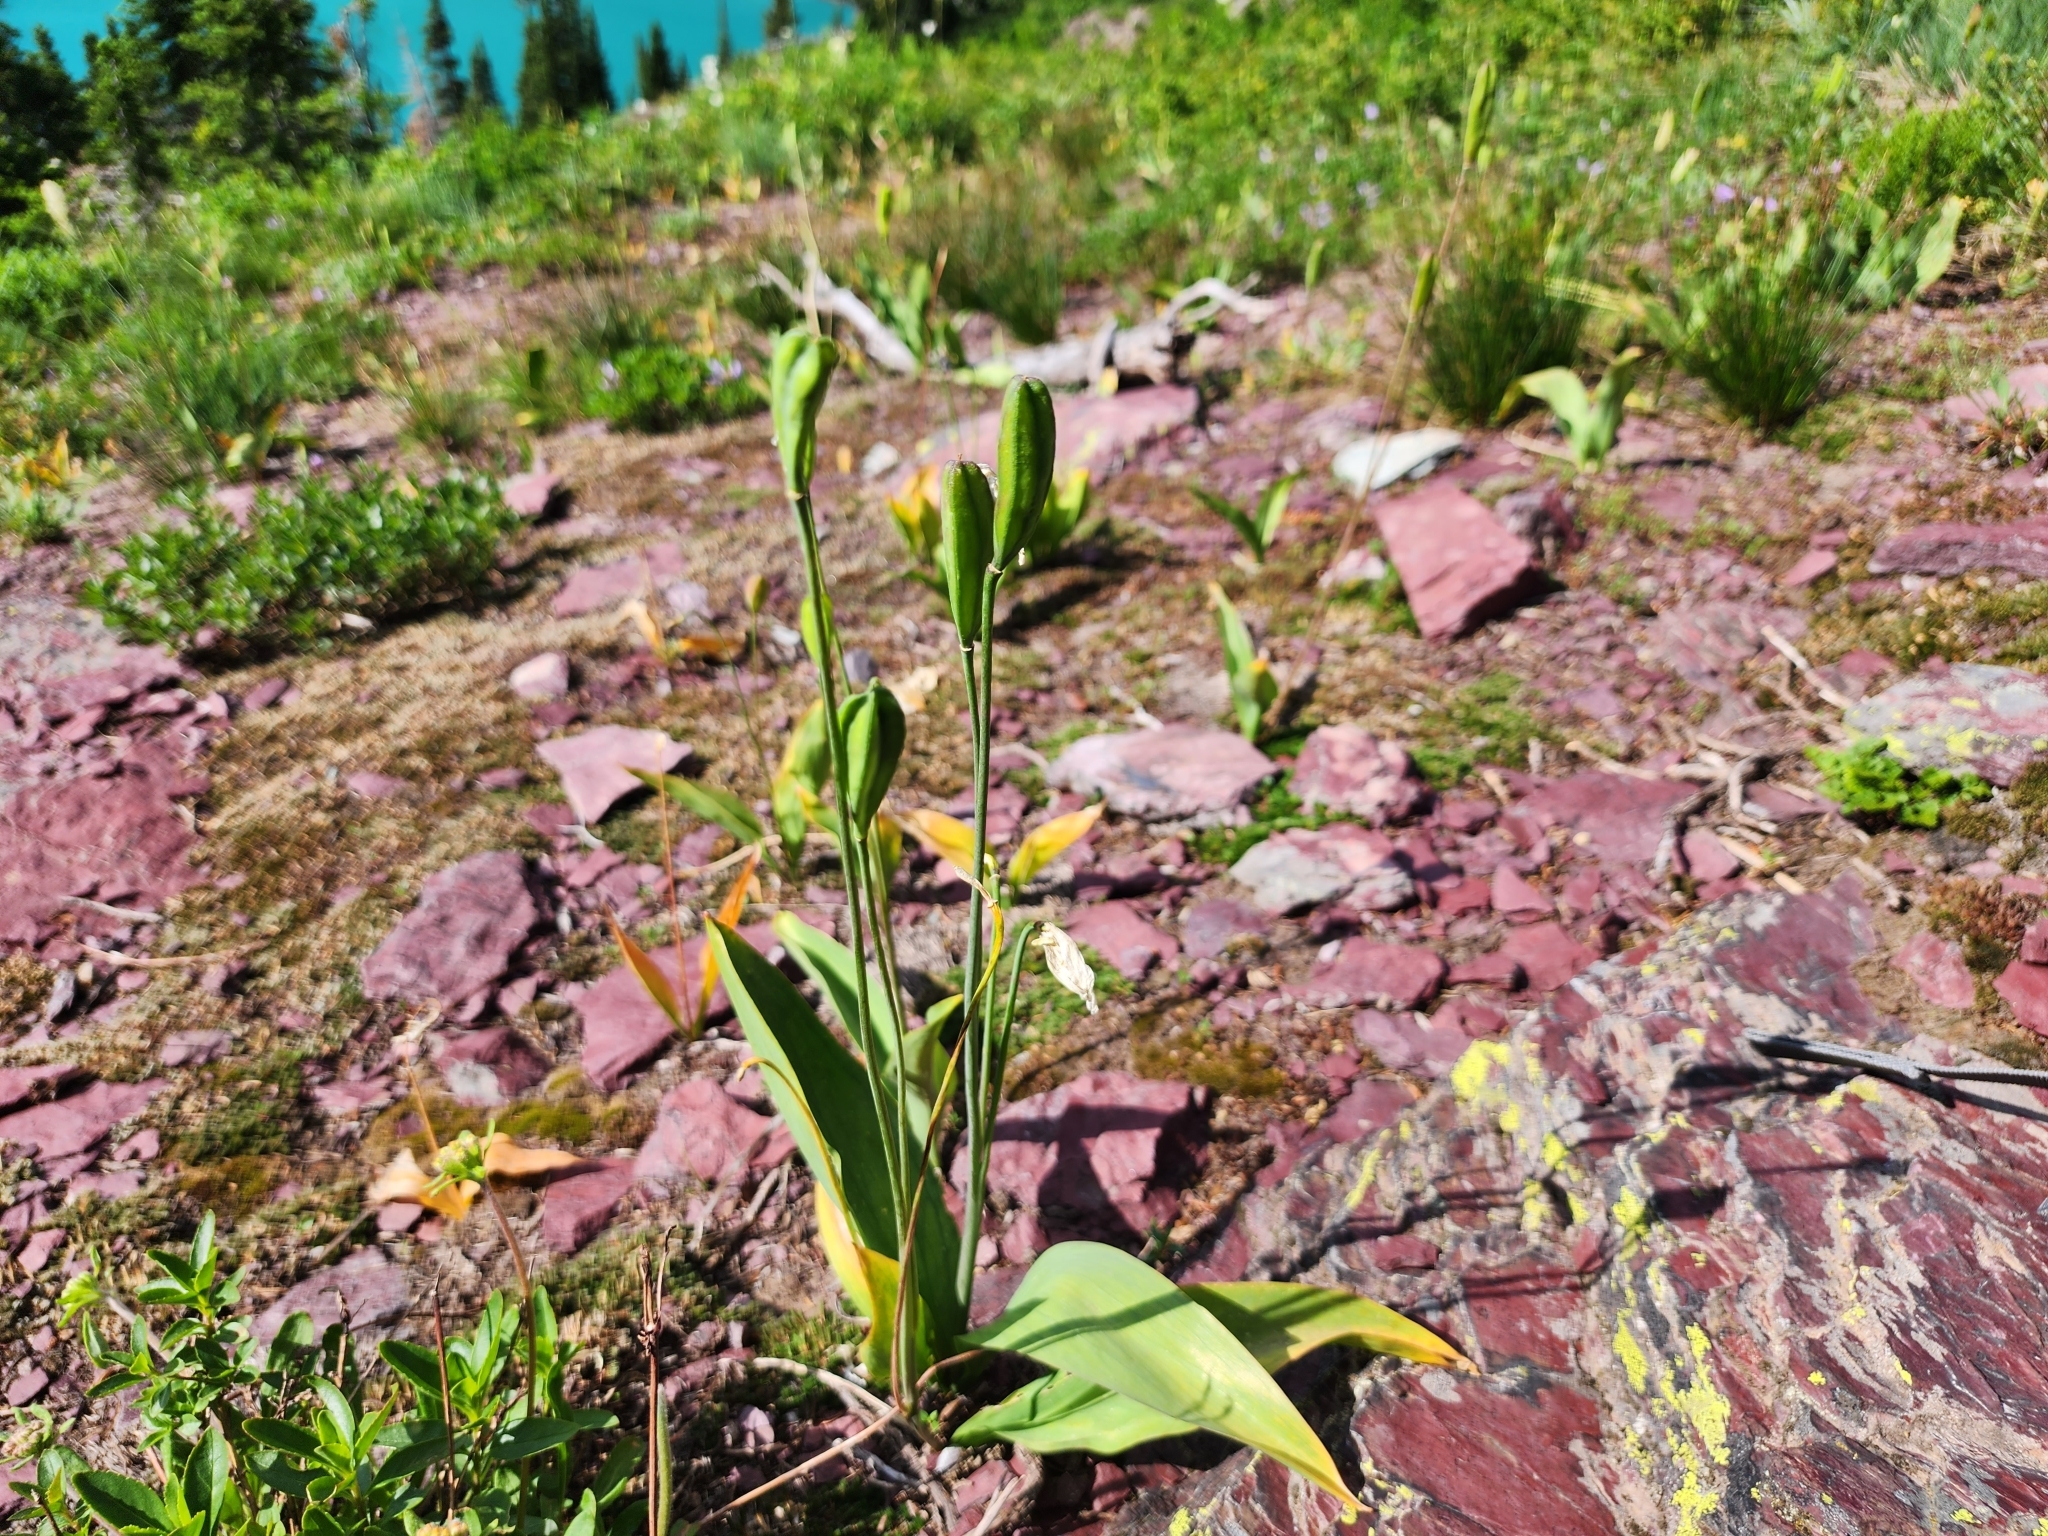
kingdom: Plantae
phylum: Tracheophyta
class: Liliopsida
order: Liliales
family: Liliaceae
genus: Erythronium
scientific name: Erythronium grandiflorum
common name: Avalanche-lily
